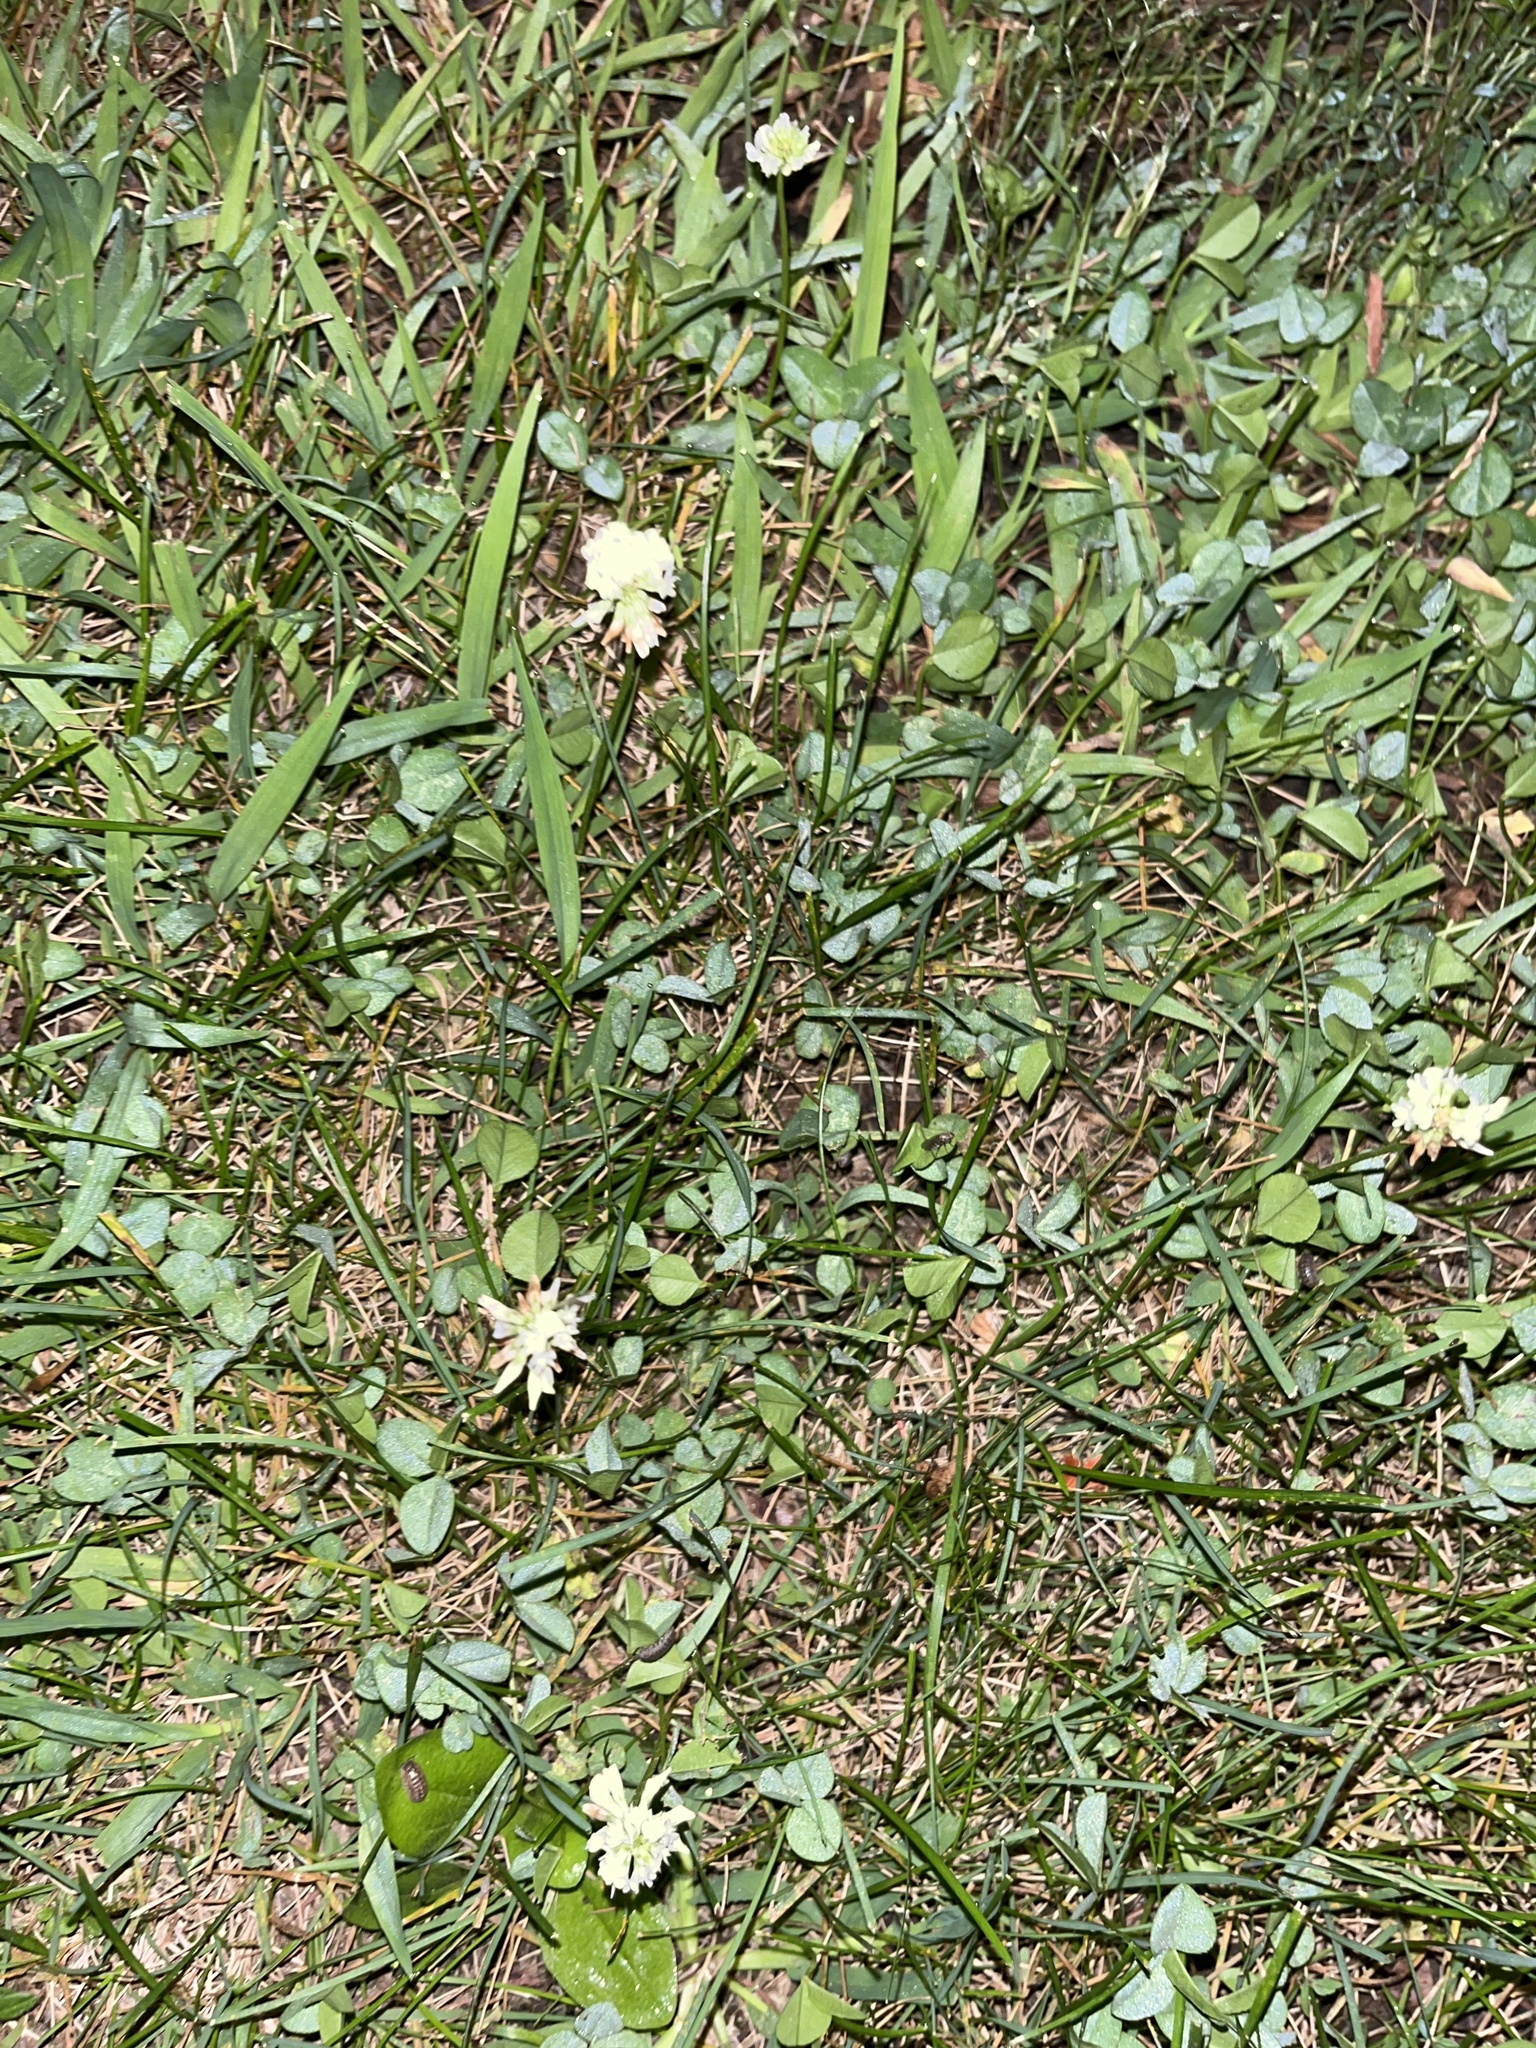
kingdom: Plantae
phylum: Tracheophyta
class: Magnoliopsida
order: Fabales
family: Fabaceae
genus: Trifolium
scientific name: Trifolium repens
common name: White clover
